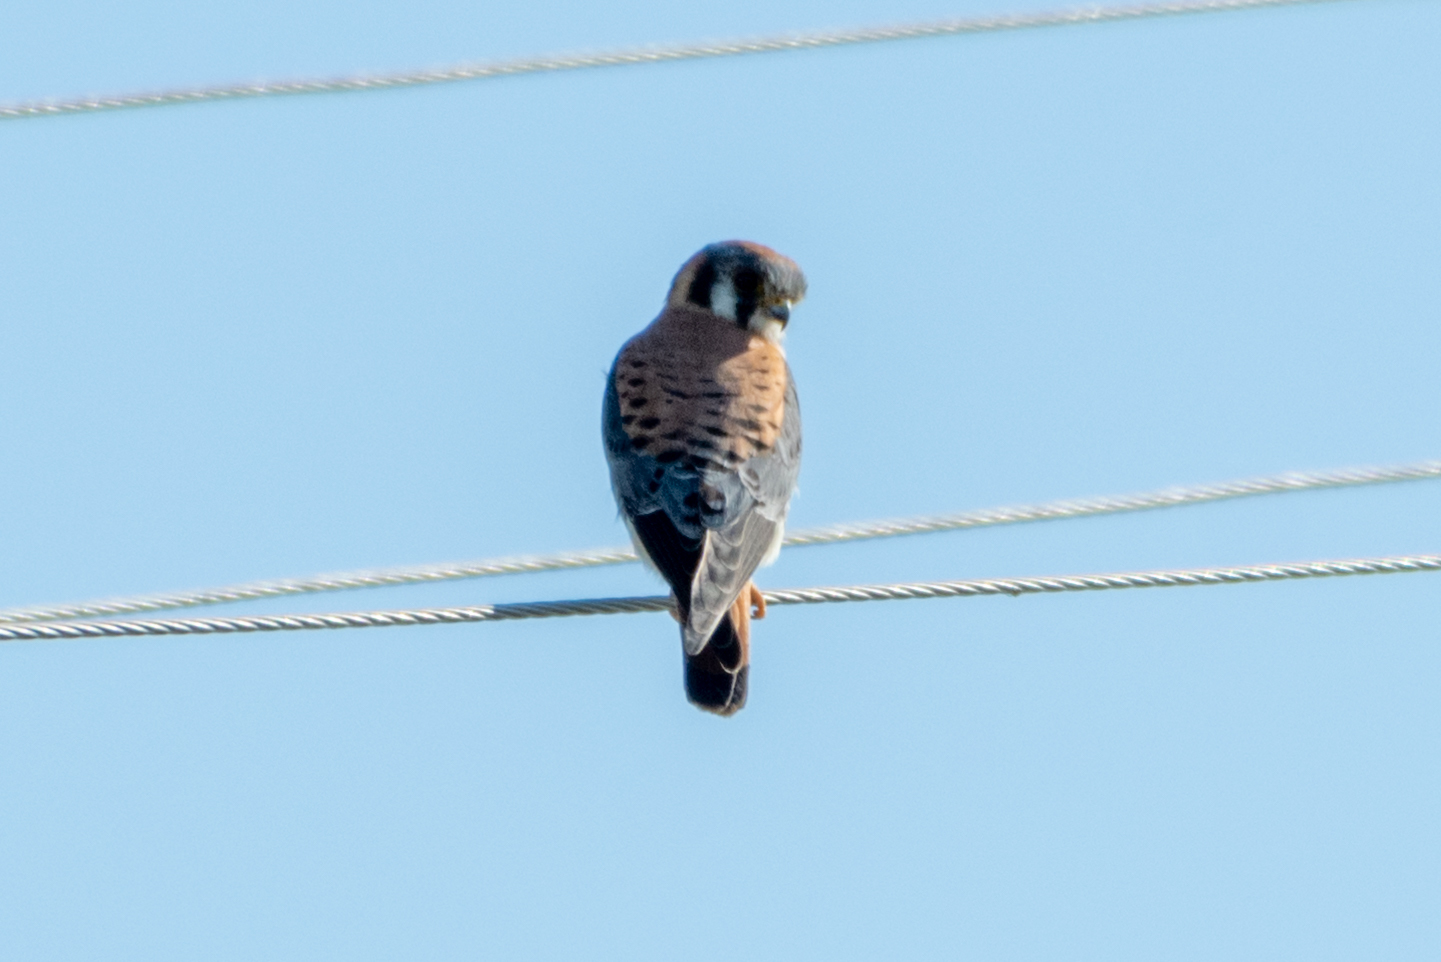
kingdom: Animalia
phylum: Chordata
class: Aves
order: Falconiformes
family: Falconidae
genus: Falco
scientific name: Falco sparverius
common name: American kestrel
